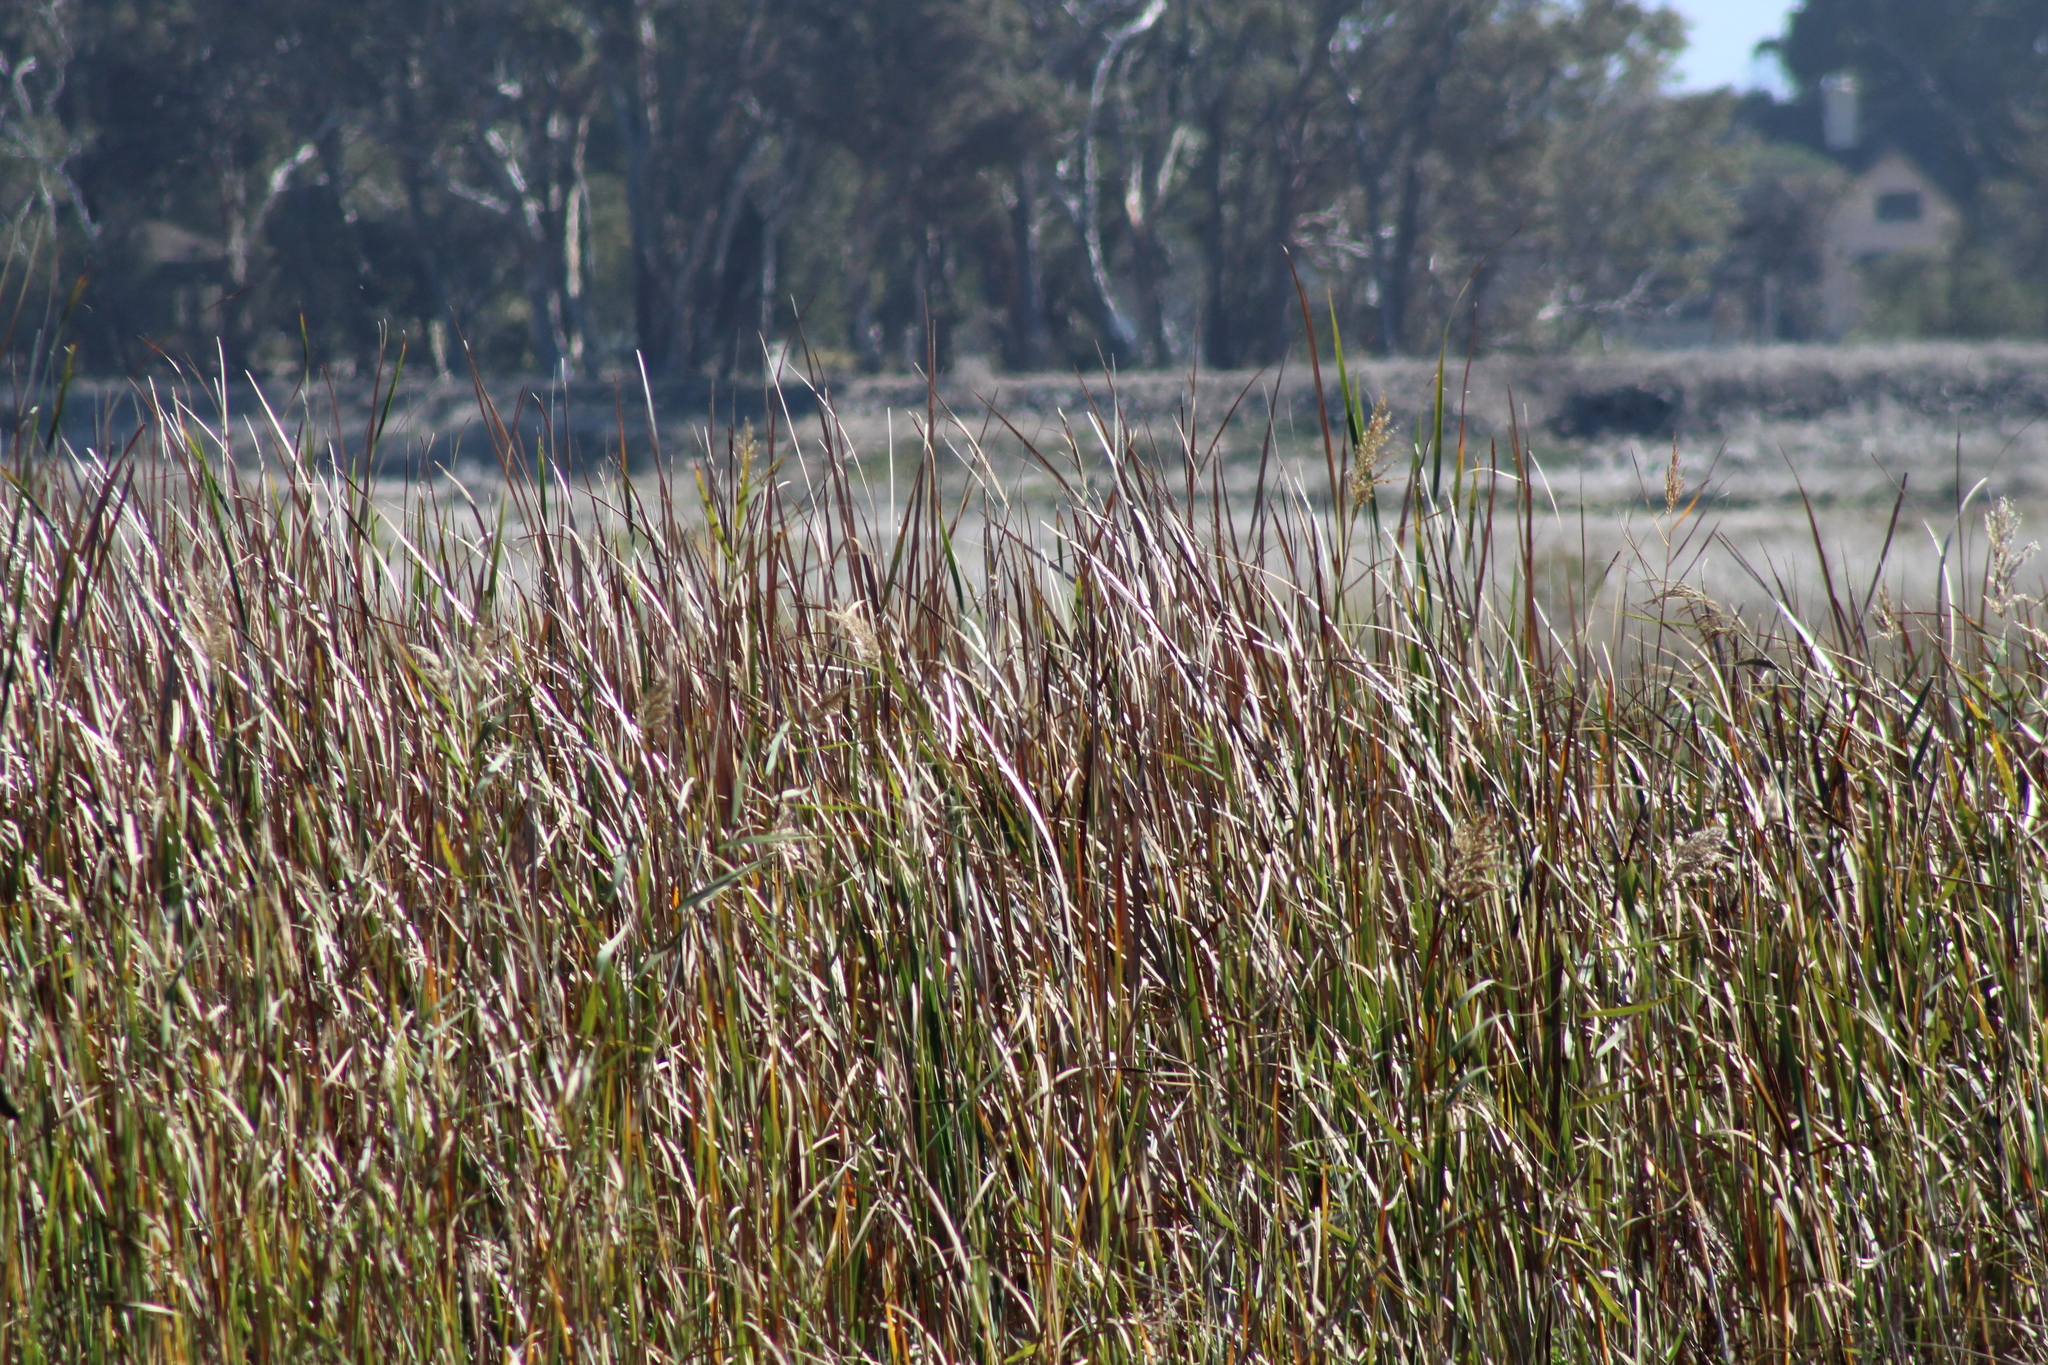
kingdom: Plantae
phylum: Tracheophyta
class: Liliopsida
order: Poales
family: Poaceae
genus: Phragmites
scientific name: Phragmites australis
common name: Common reed
